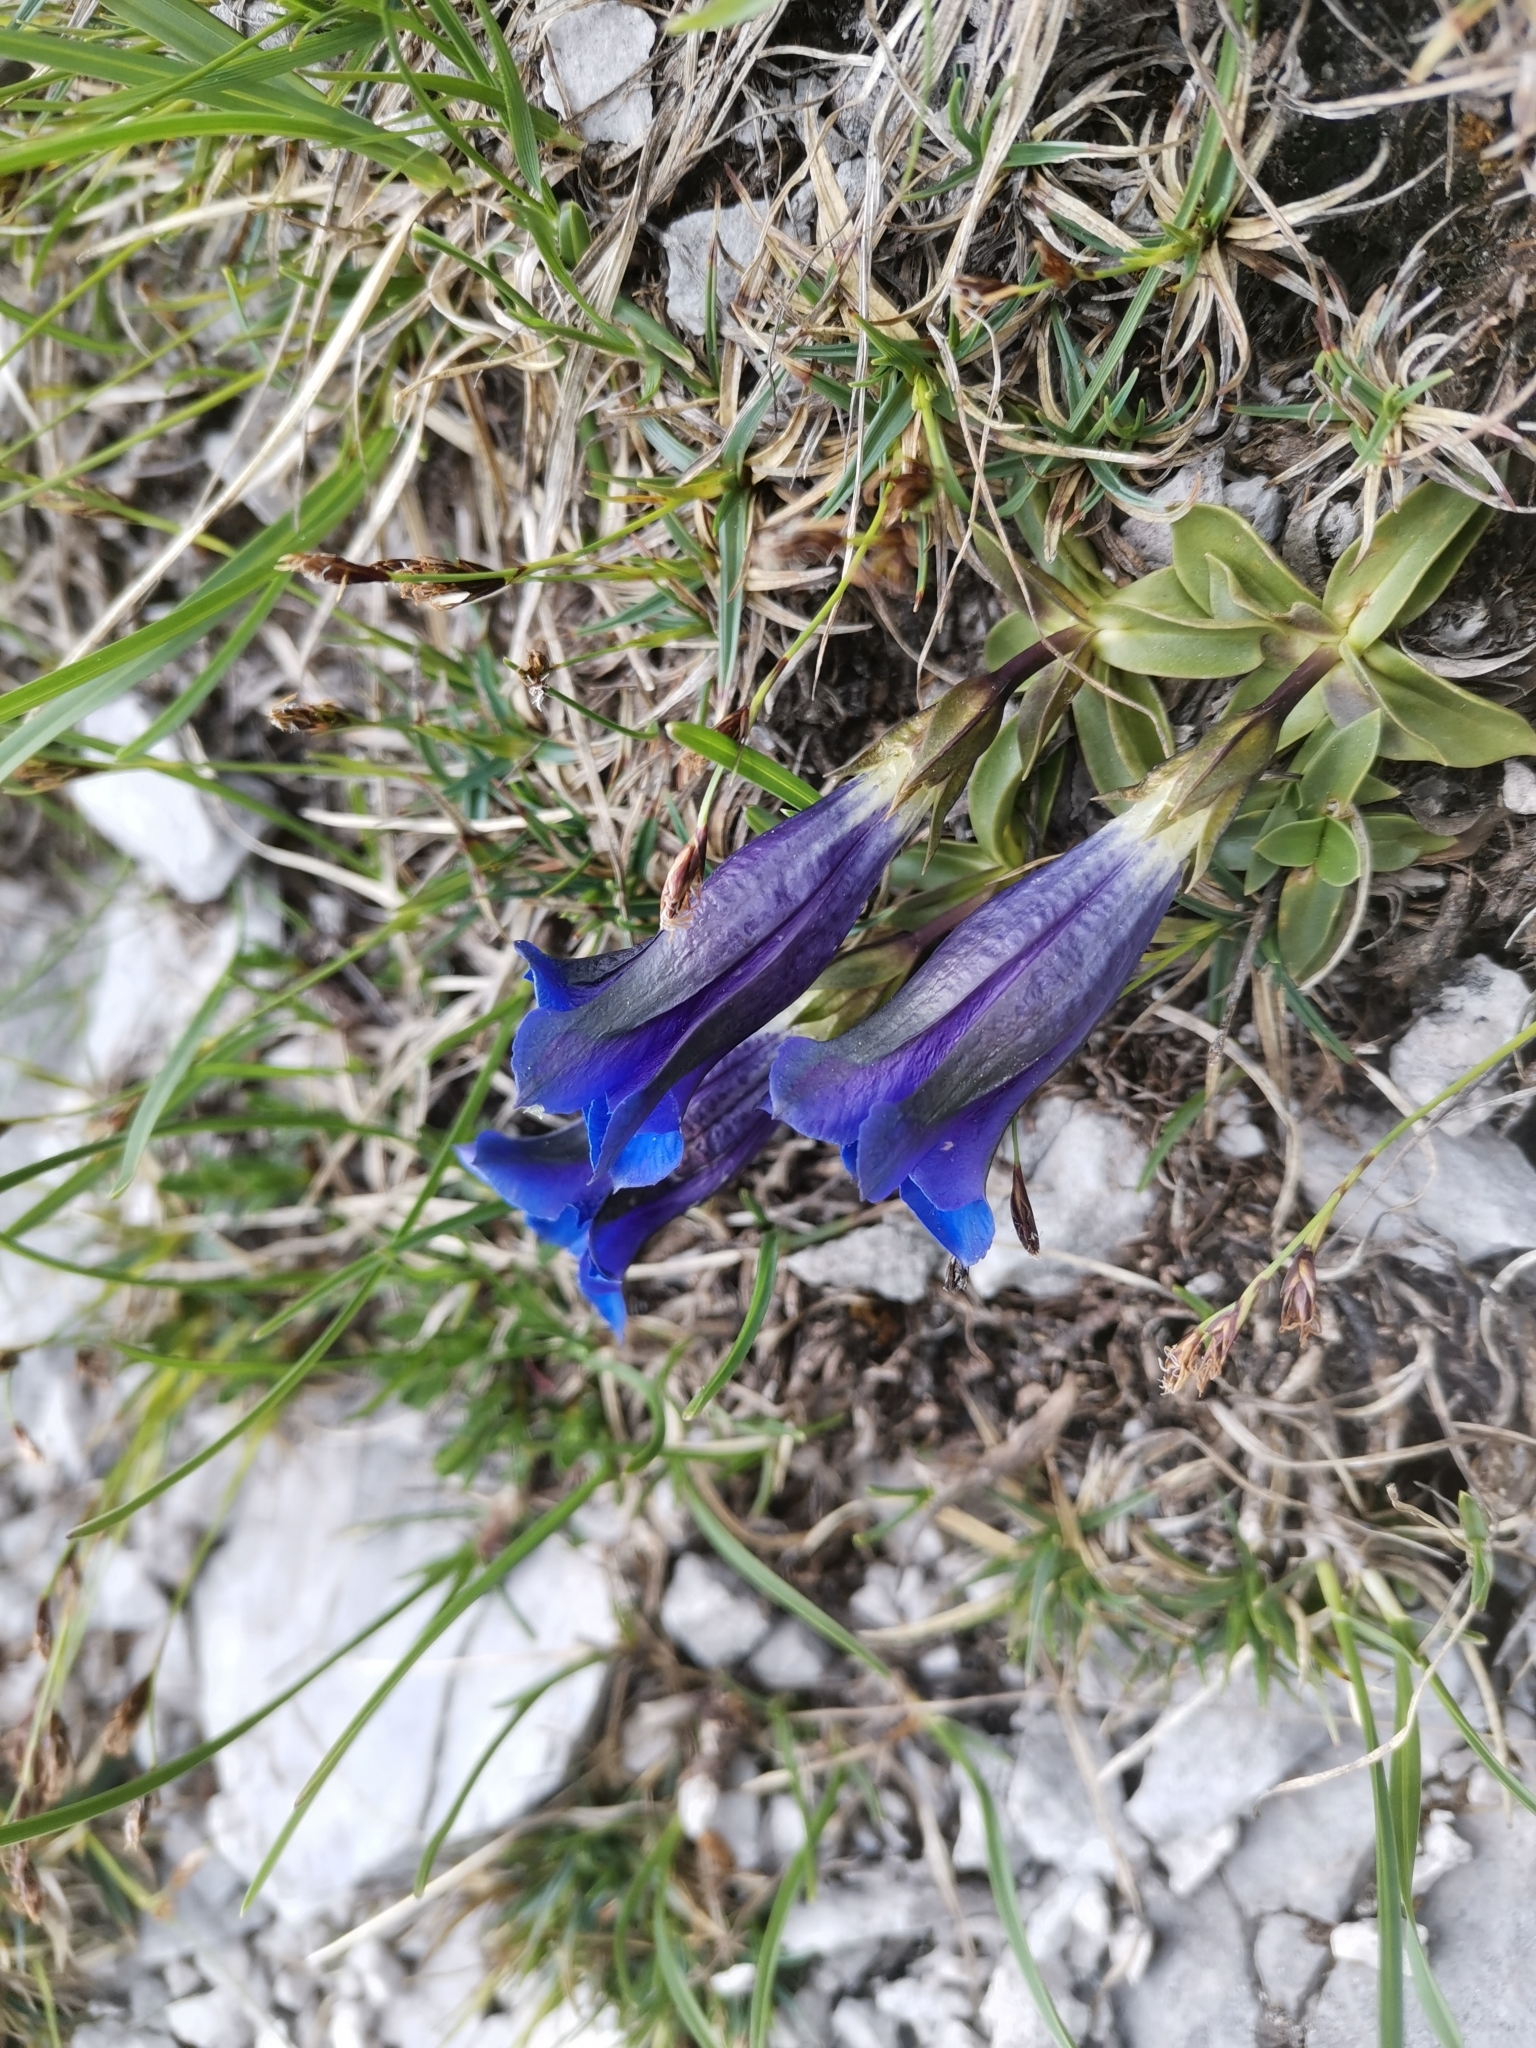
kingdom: Plantae
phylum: Tracheophyta
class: Magnoliopsida
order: Gentianales
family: Gentianaceae
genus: Gentiana
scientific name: Gentiana clusii
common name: Trumpet gentian
